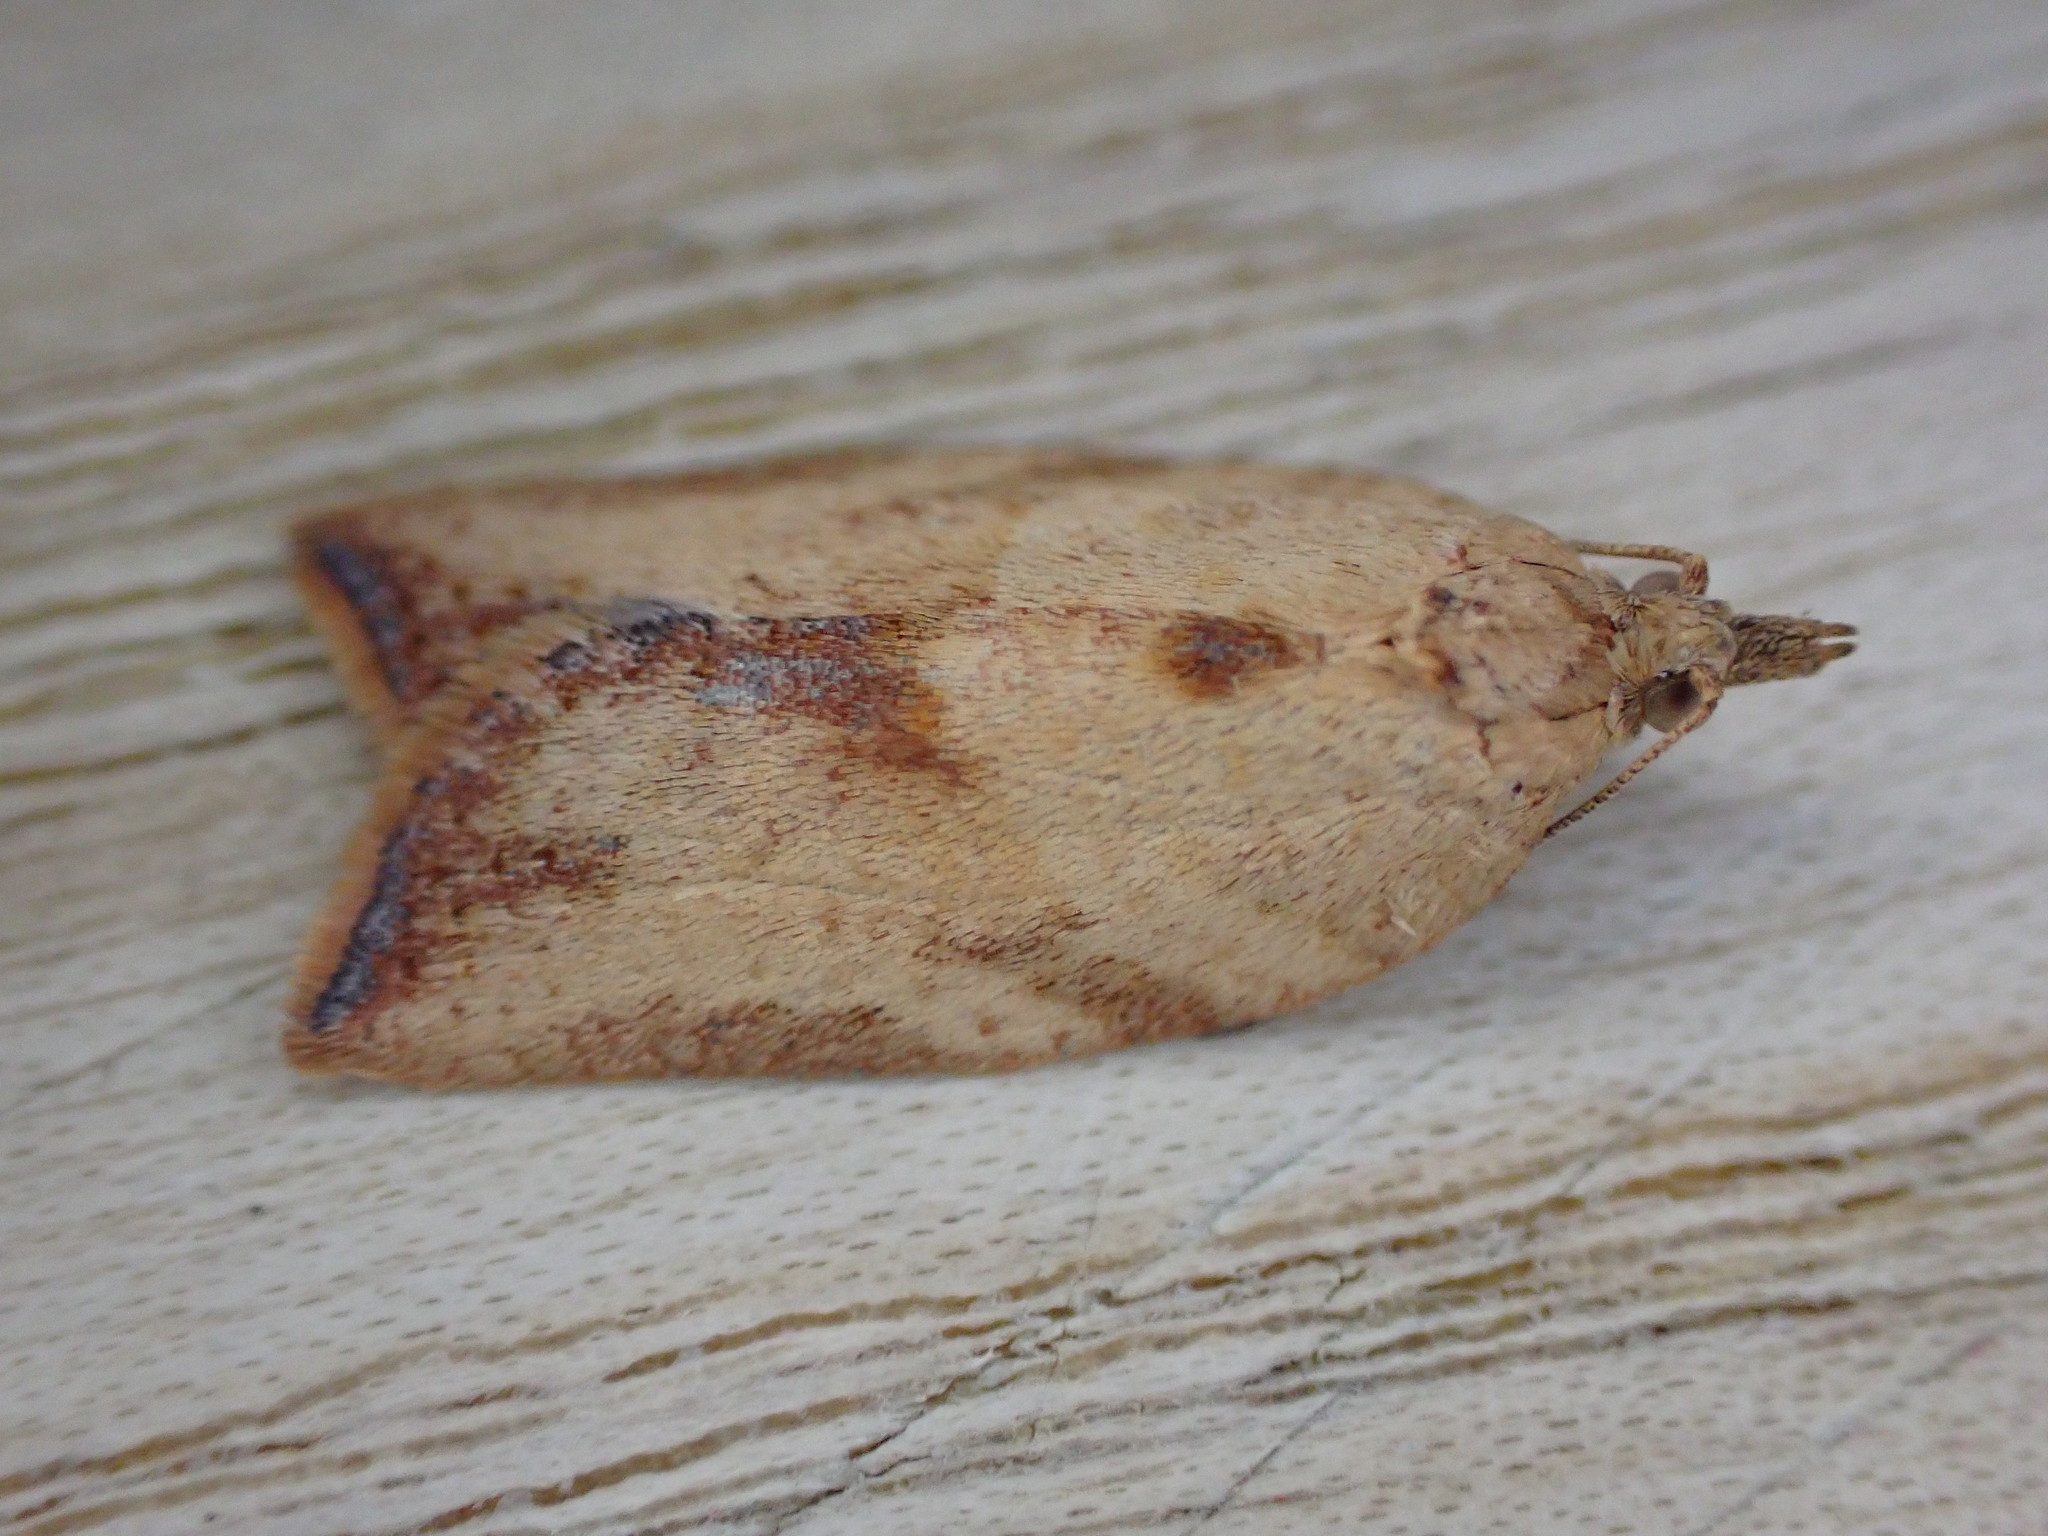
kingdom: Animalia
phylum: Arthropoda
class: Insecta
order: Lepidoptera
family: Tortricidae
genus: Epiphyas
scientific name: Epiphyas postvittana
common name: Light brown apple moth
